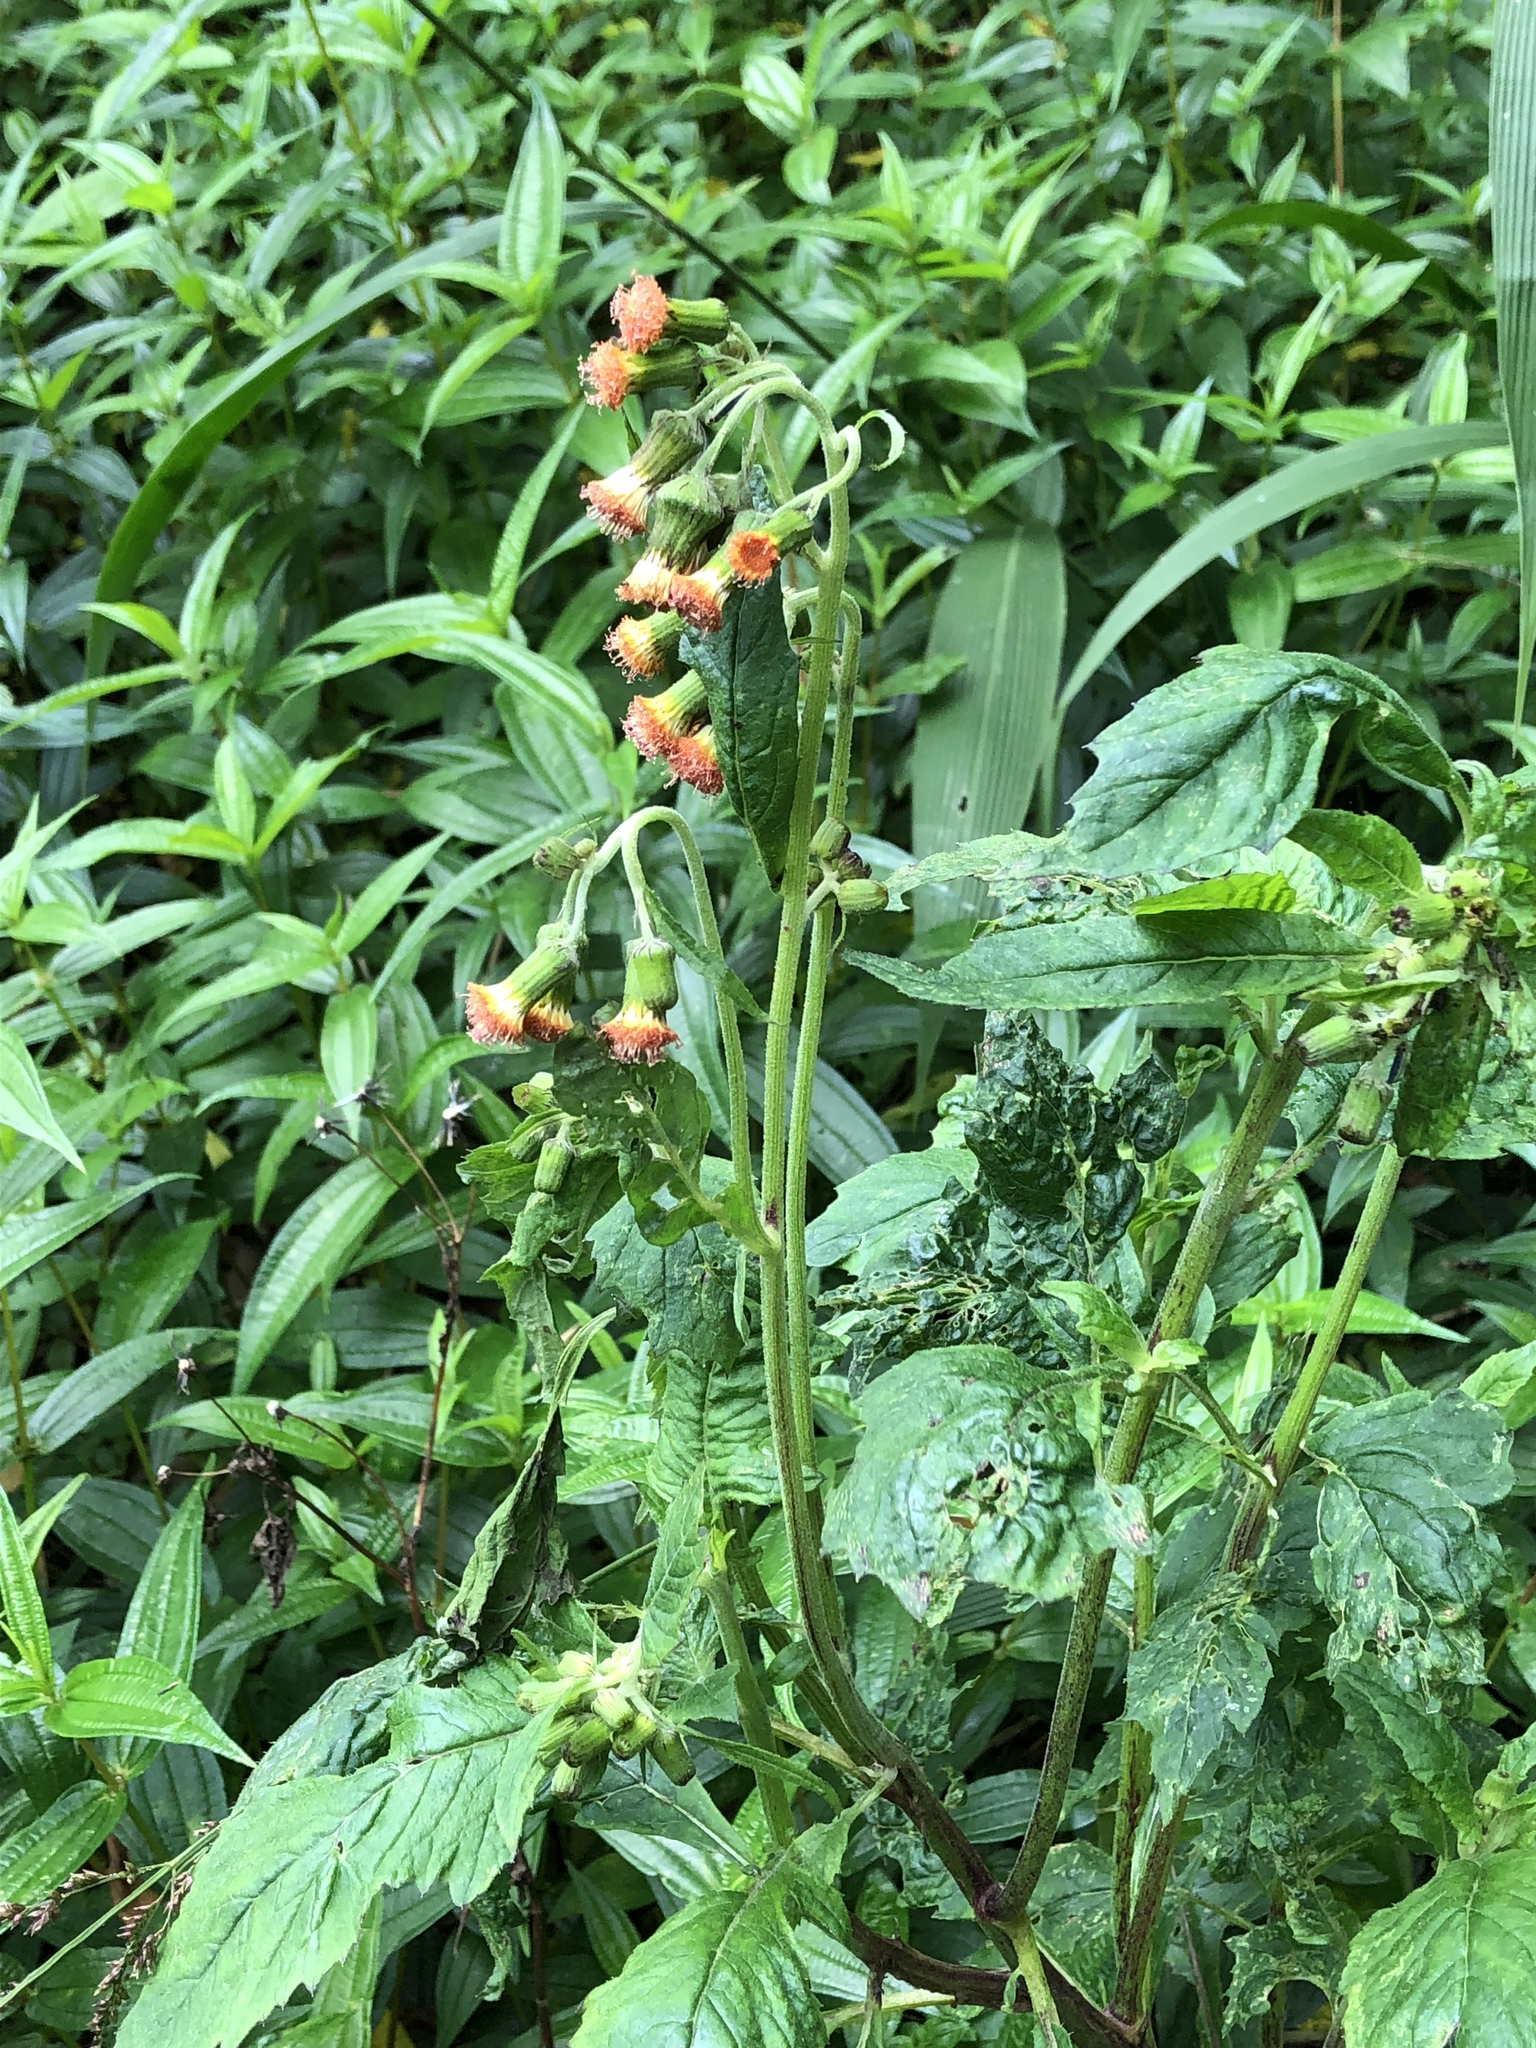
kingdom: Plantae
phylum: Tracheophyta
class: Magnoliopsida
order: Asterales
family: Asteraceae
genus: Crassocephalum
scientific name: Crassocephalum crepidioides
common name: Redflower ragleaf
